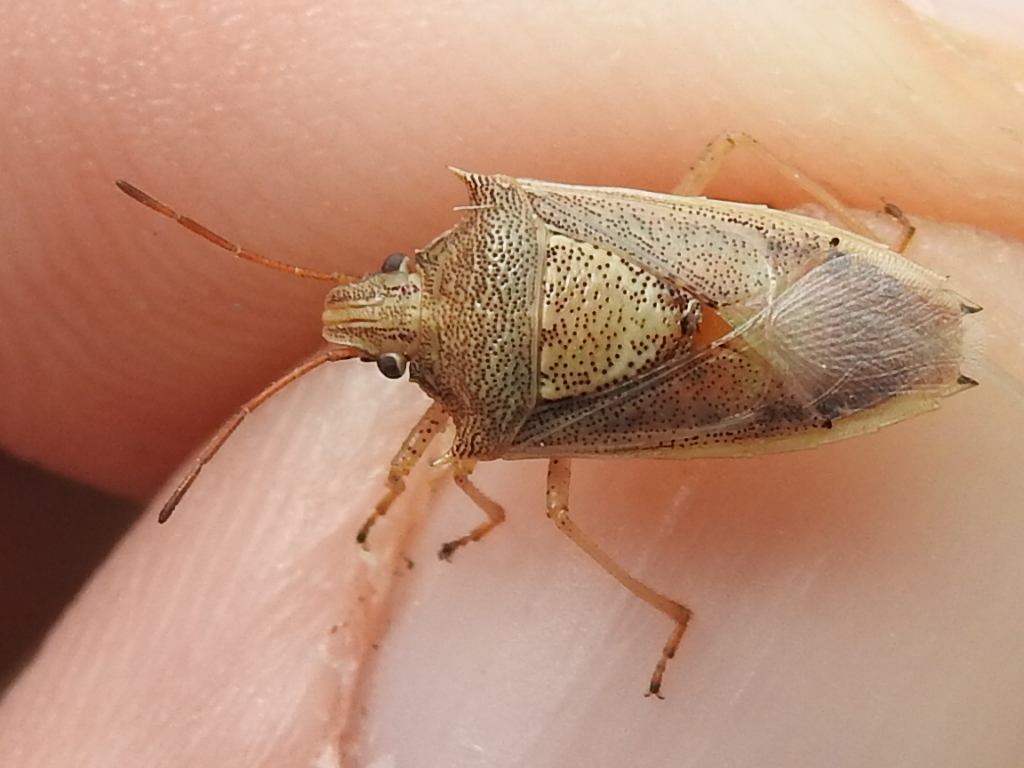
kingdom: Animalia
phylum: Arthropoda
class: Insecta
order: Hemiptera
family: Pentatomidae
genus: Oebalus
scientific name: Oebalus pugnax
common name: Rice stink bug
